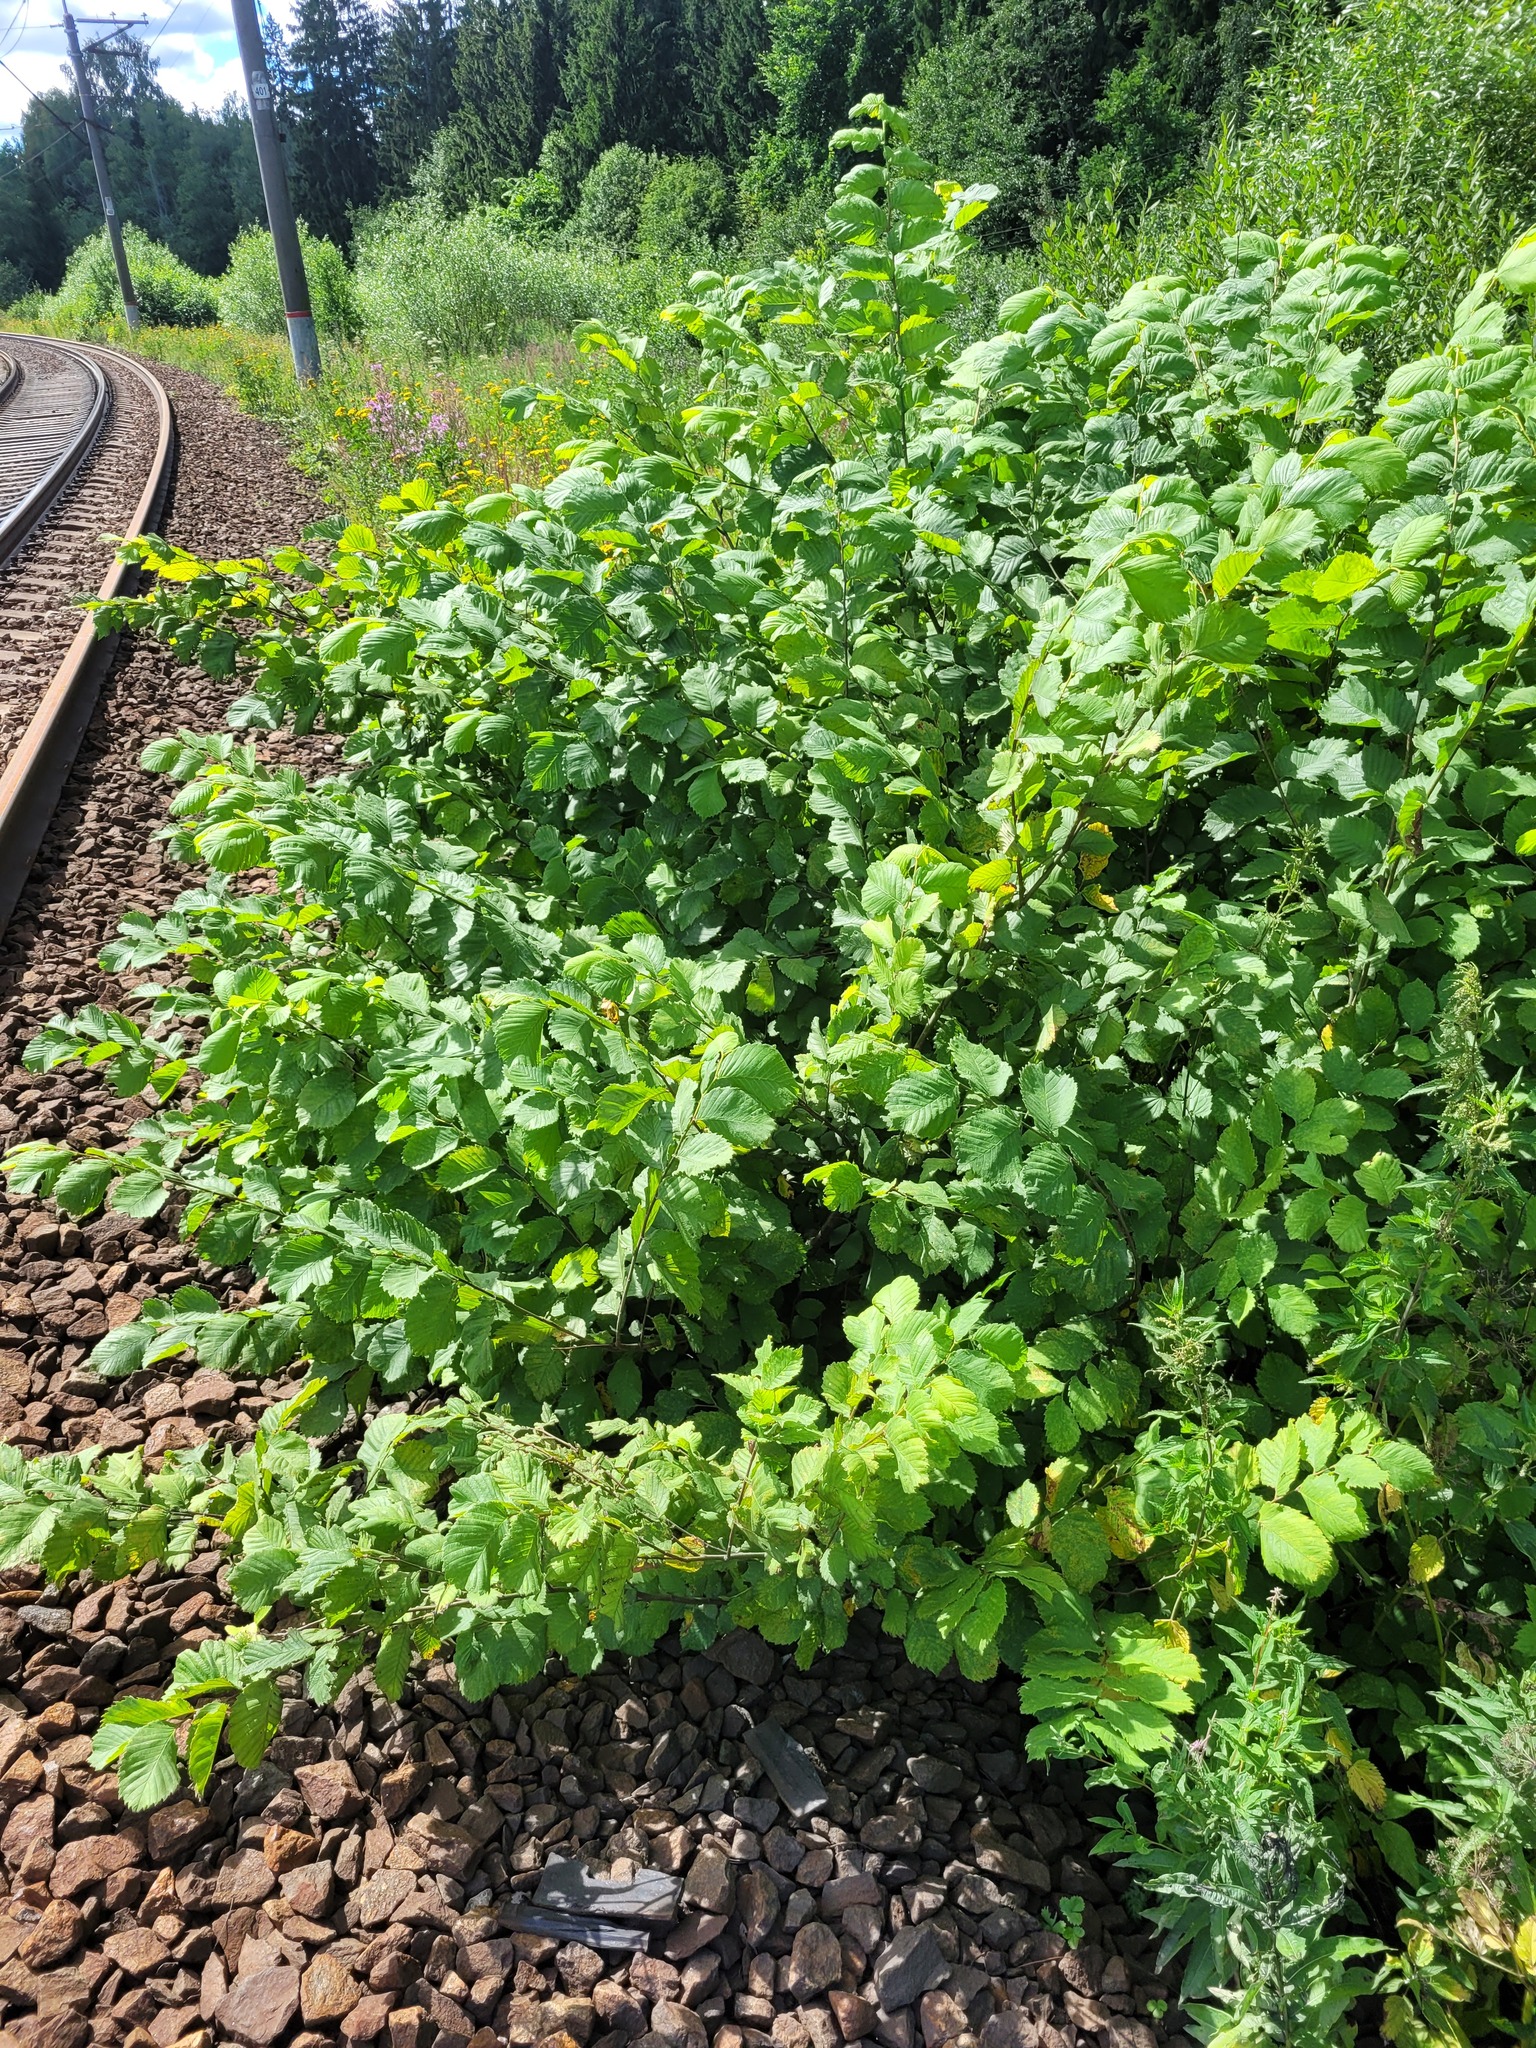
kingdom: Plantae
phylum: Tracheophyta
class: Magnoliopsida
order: Rosales
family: Ulmaceae
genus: Ulmus
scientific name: Ulmus laevis
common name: European white-elm
